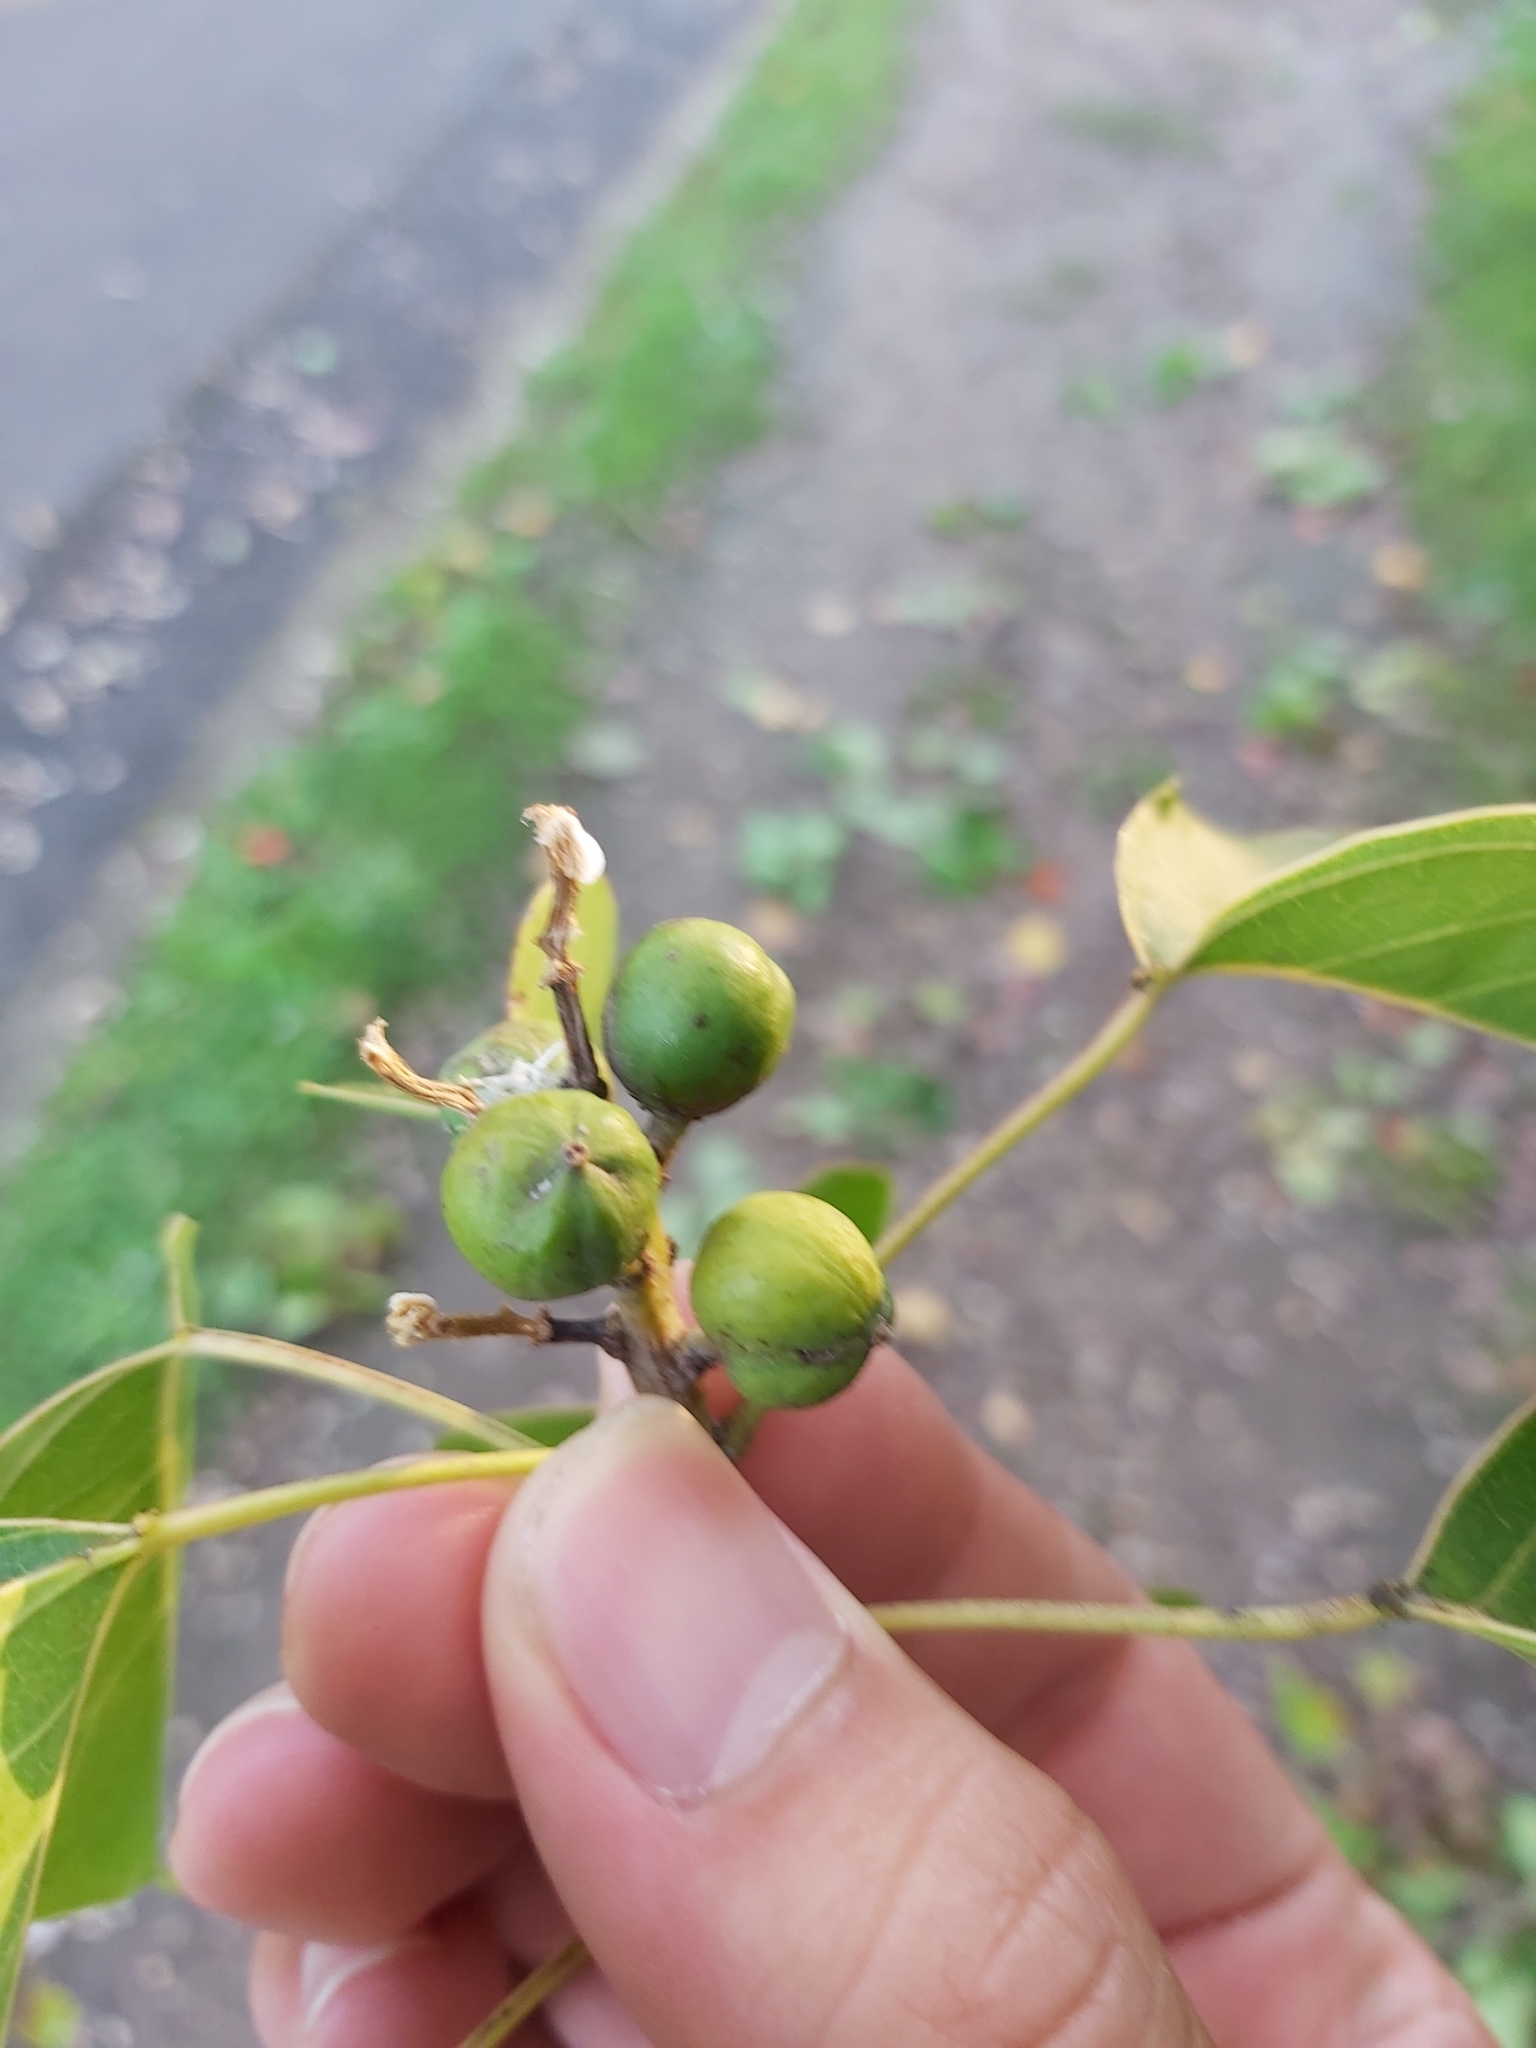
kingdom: Plantae
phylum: Tracheophyta
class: Magnoliopsida
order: Malpighiales
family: Euphorbiaceae
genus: Triadica
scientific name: Triadica sebifera
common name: Chinese tallow
